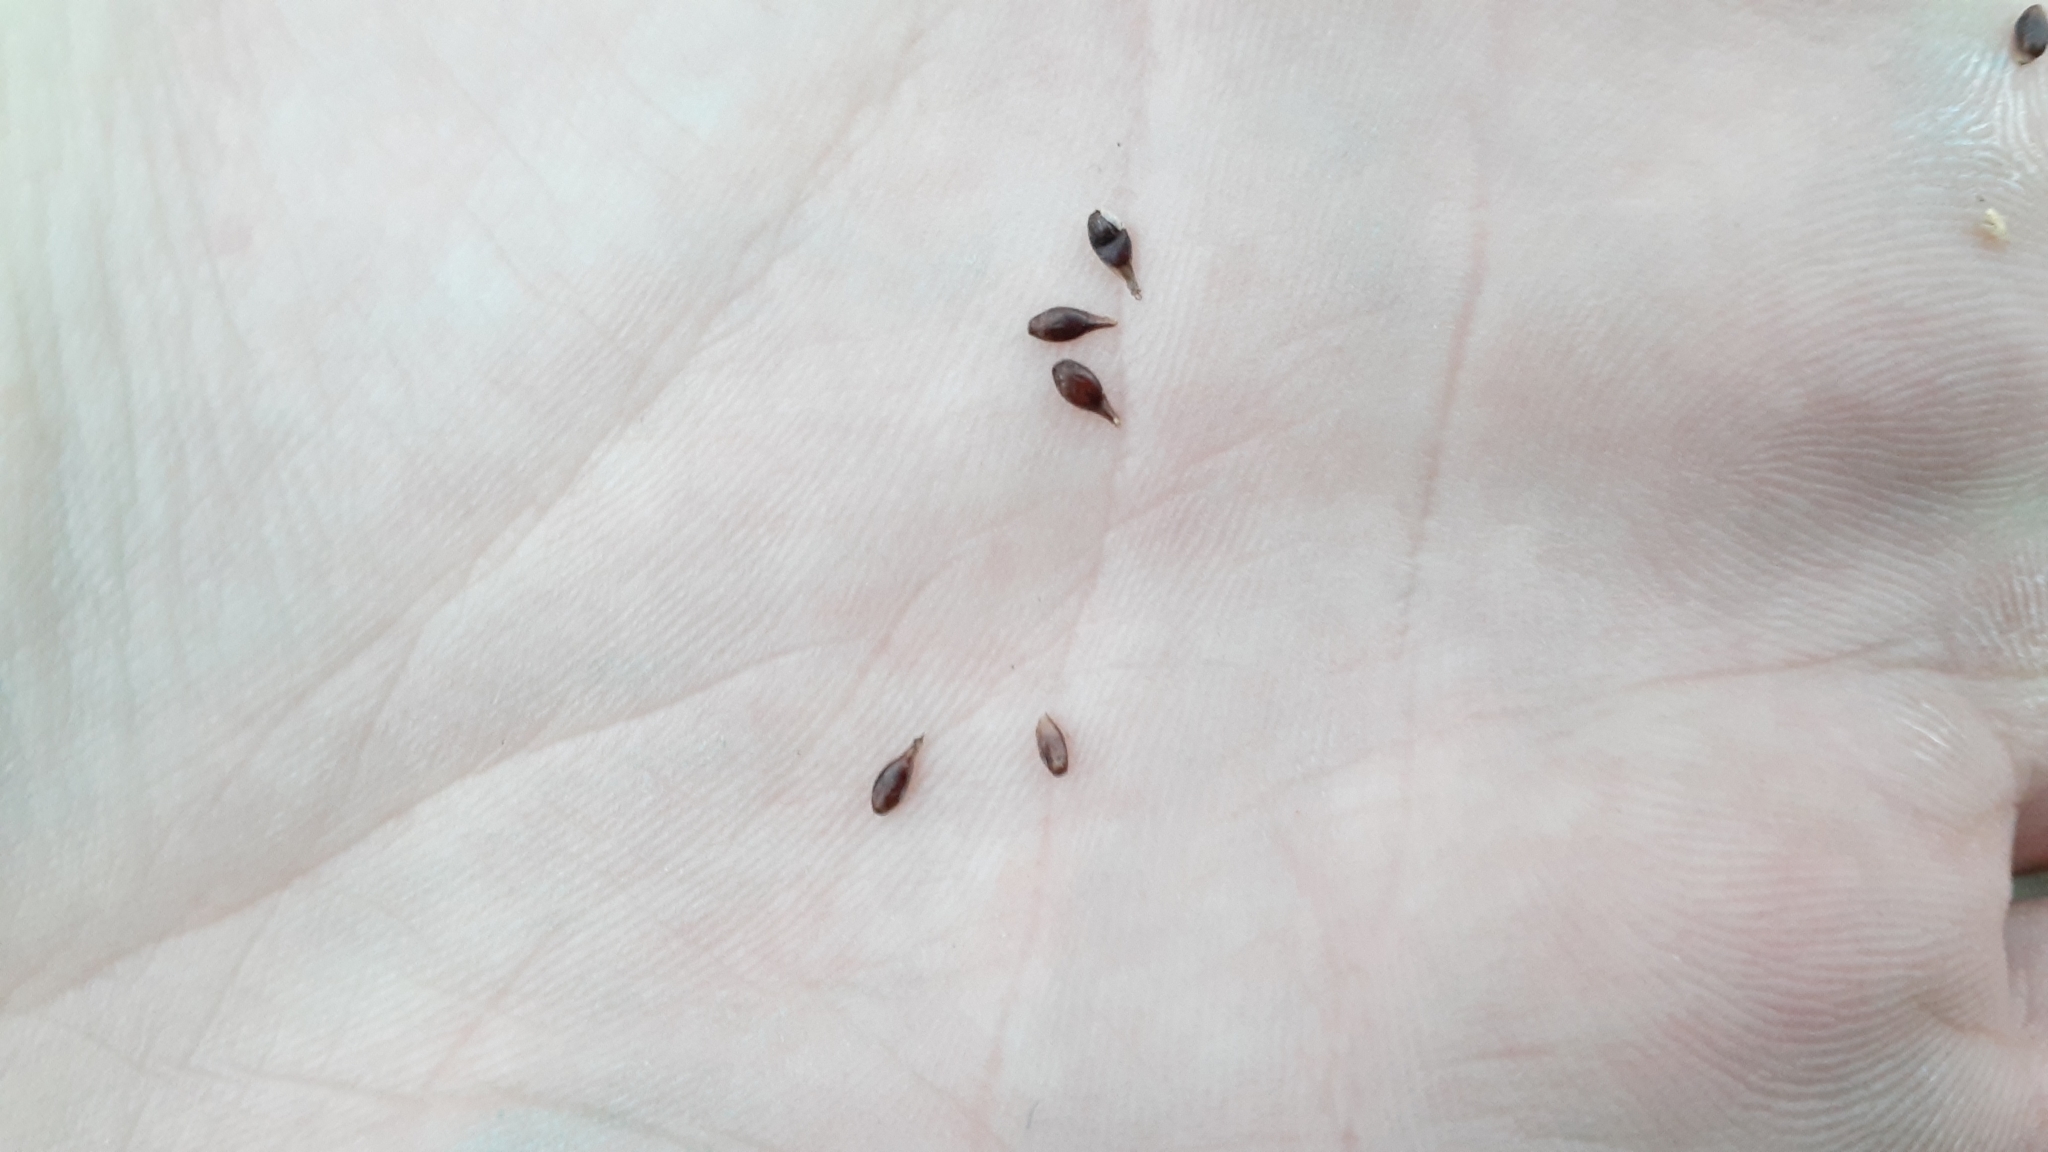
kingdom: Plantae
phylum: Tracheophyta
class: Liliopsida
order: Poales
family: Cyperaceae
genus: Carex
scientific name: Carex rosea
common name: Curly-styled wood sedge
